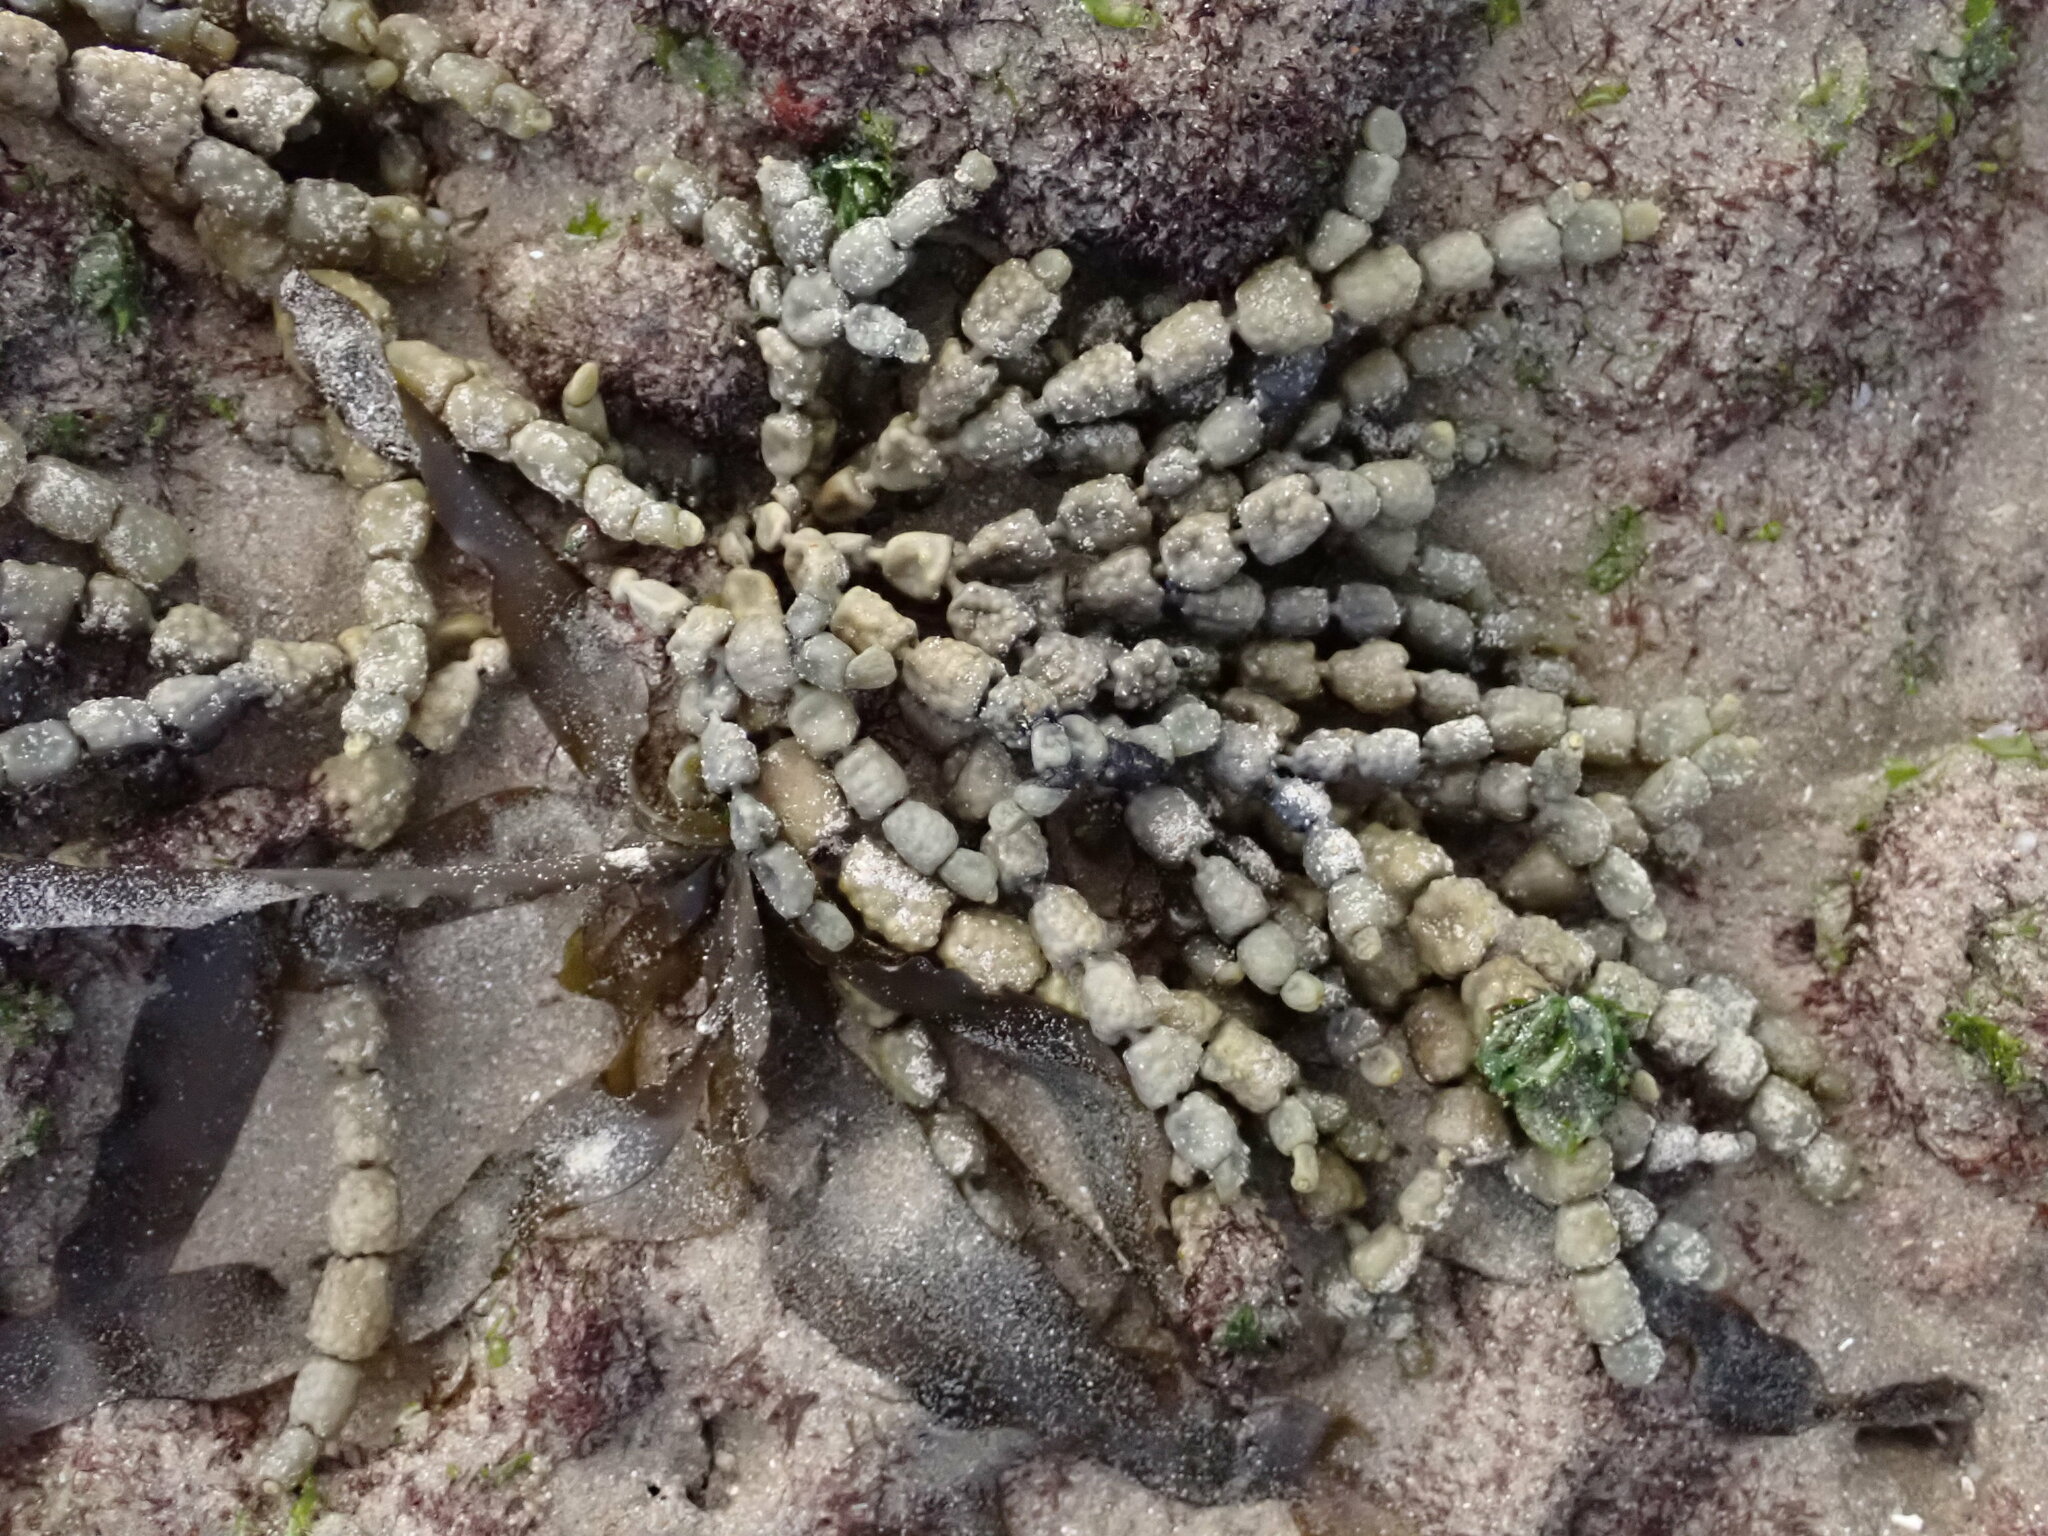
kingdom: Chromista
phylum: Ochrophyta
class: Phaeophyceae
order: Fucales
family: Hormosiraceae
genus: Hormosira
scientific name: Hormosira banksii
